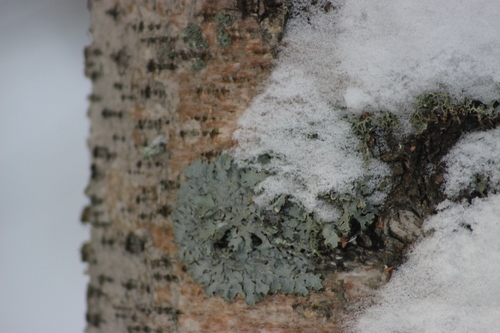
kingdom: Fungi
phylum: Ascomycota
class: Lecanoromycetes
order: Lecanorales
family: Parmeliaceae
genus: Parmelia
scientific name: Parmelia sulcata
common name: Netted shield lichen
